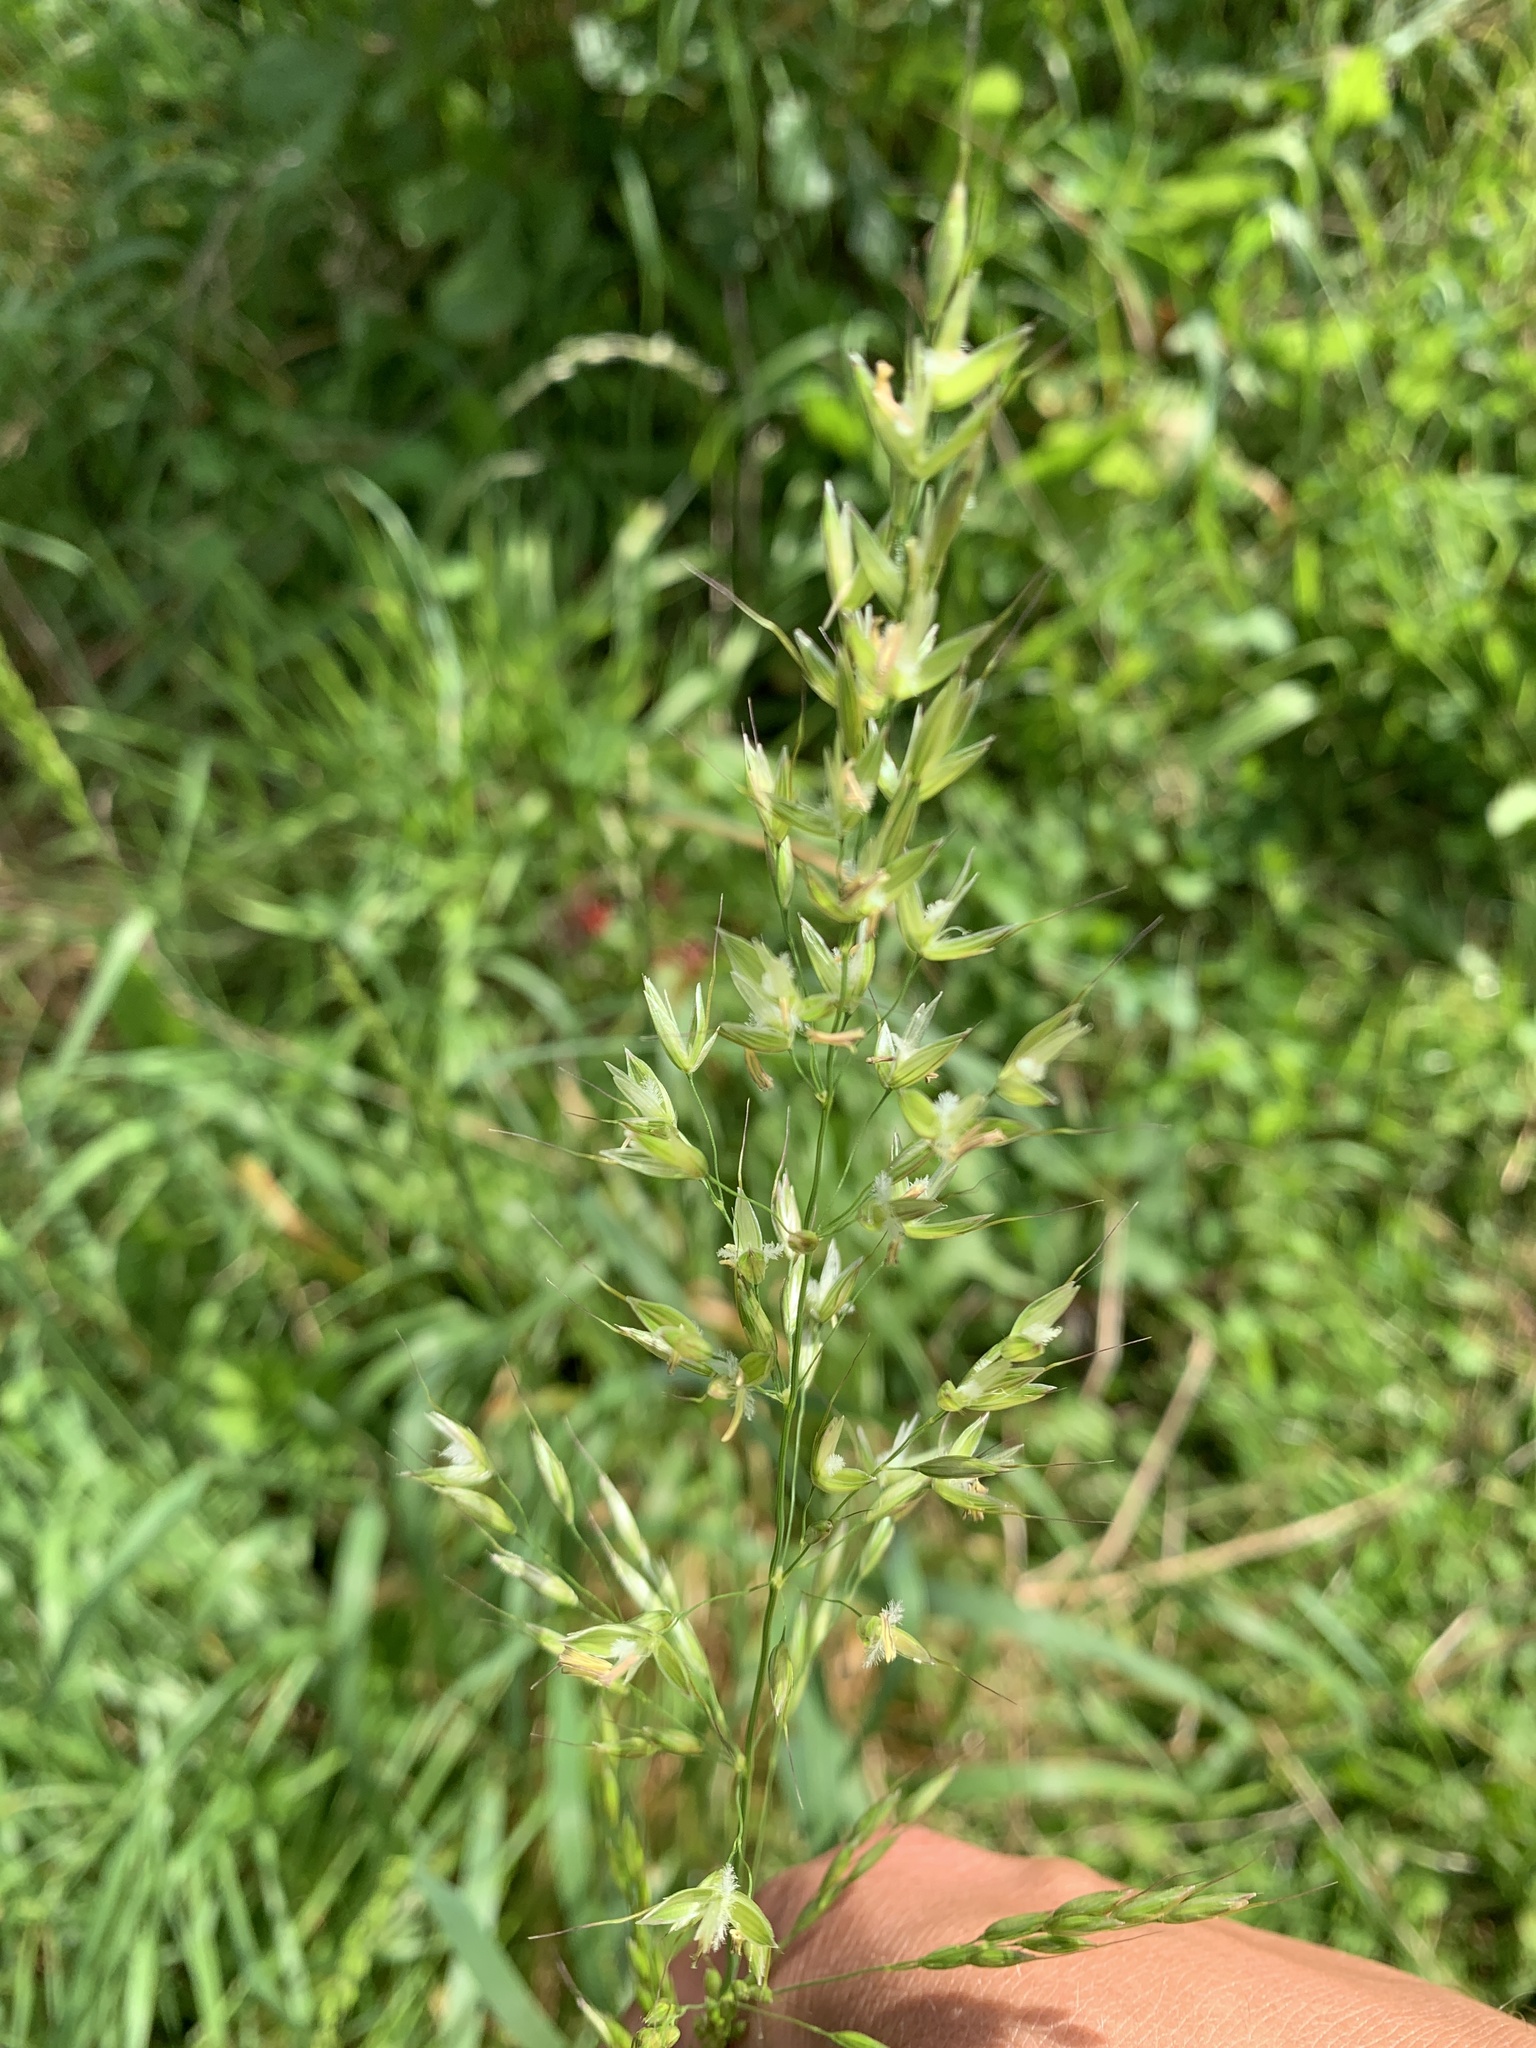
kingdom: Plantae
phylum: Tracheophyta
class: Liliopsida
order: Poales
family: Poaceae
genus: Arrhenatherum
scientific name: Arrhenatherum elatius
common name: Tall oatgrass
